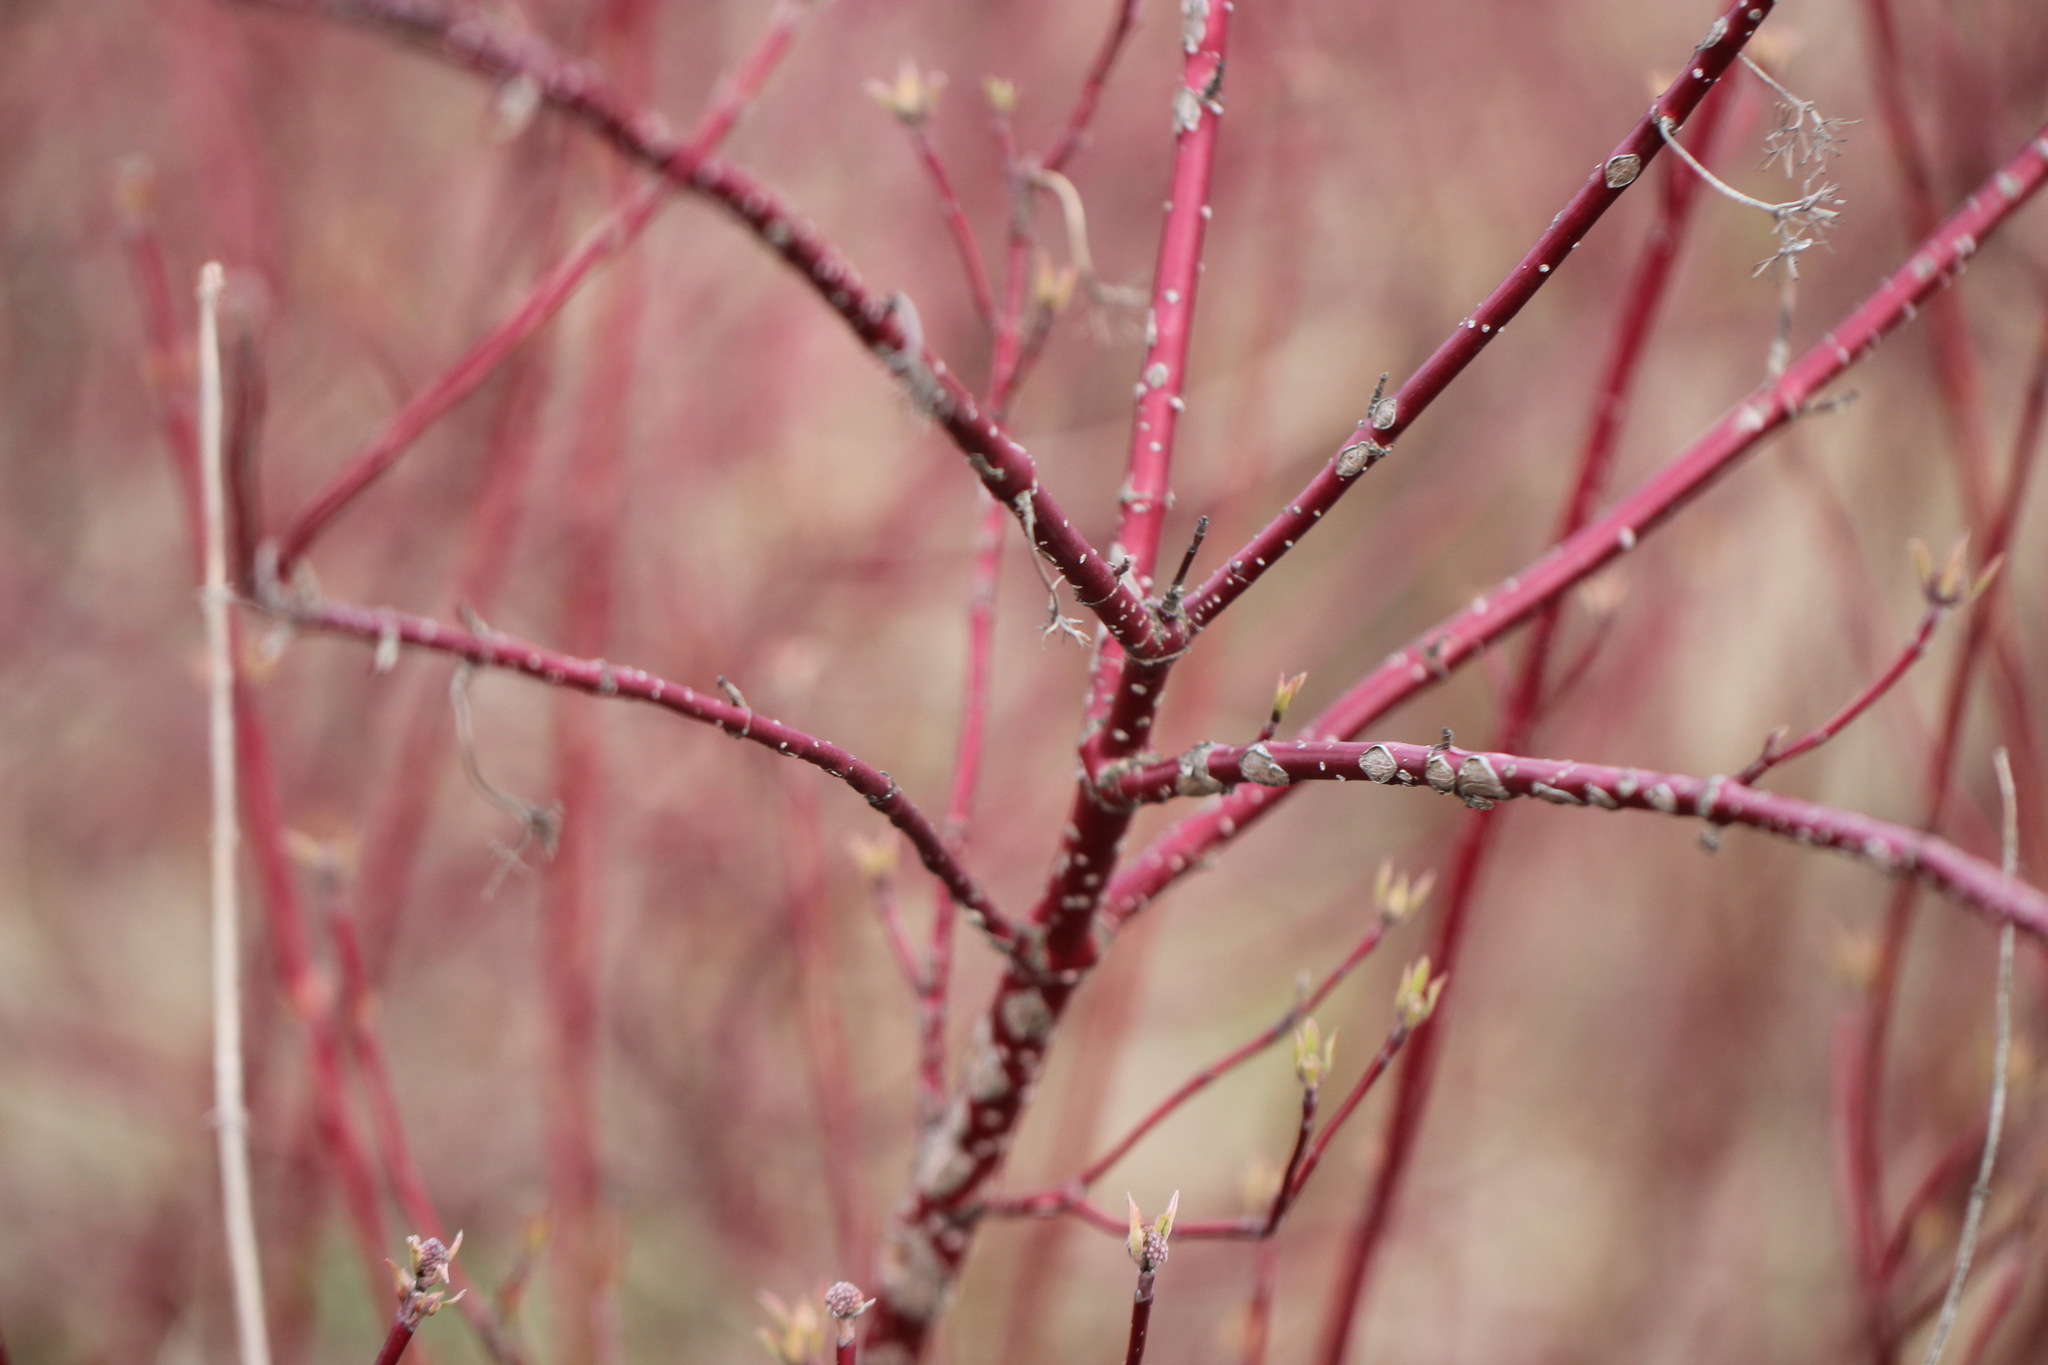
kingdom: Plantae
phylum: Tracheophyta
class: Magnoliopsida
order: Cornales
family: Cornaceae
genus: Cornus
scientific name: Cornus alba
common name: White dogwood
